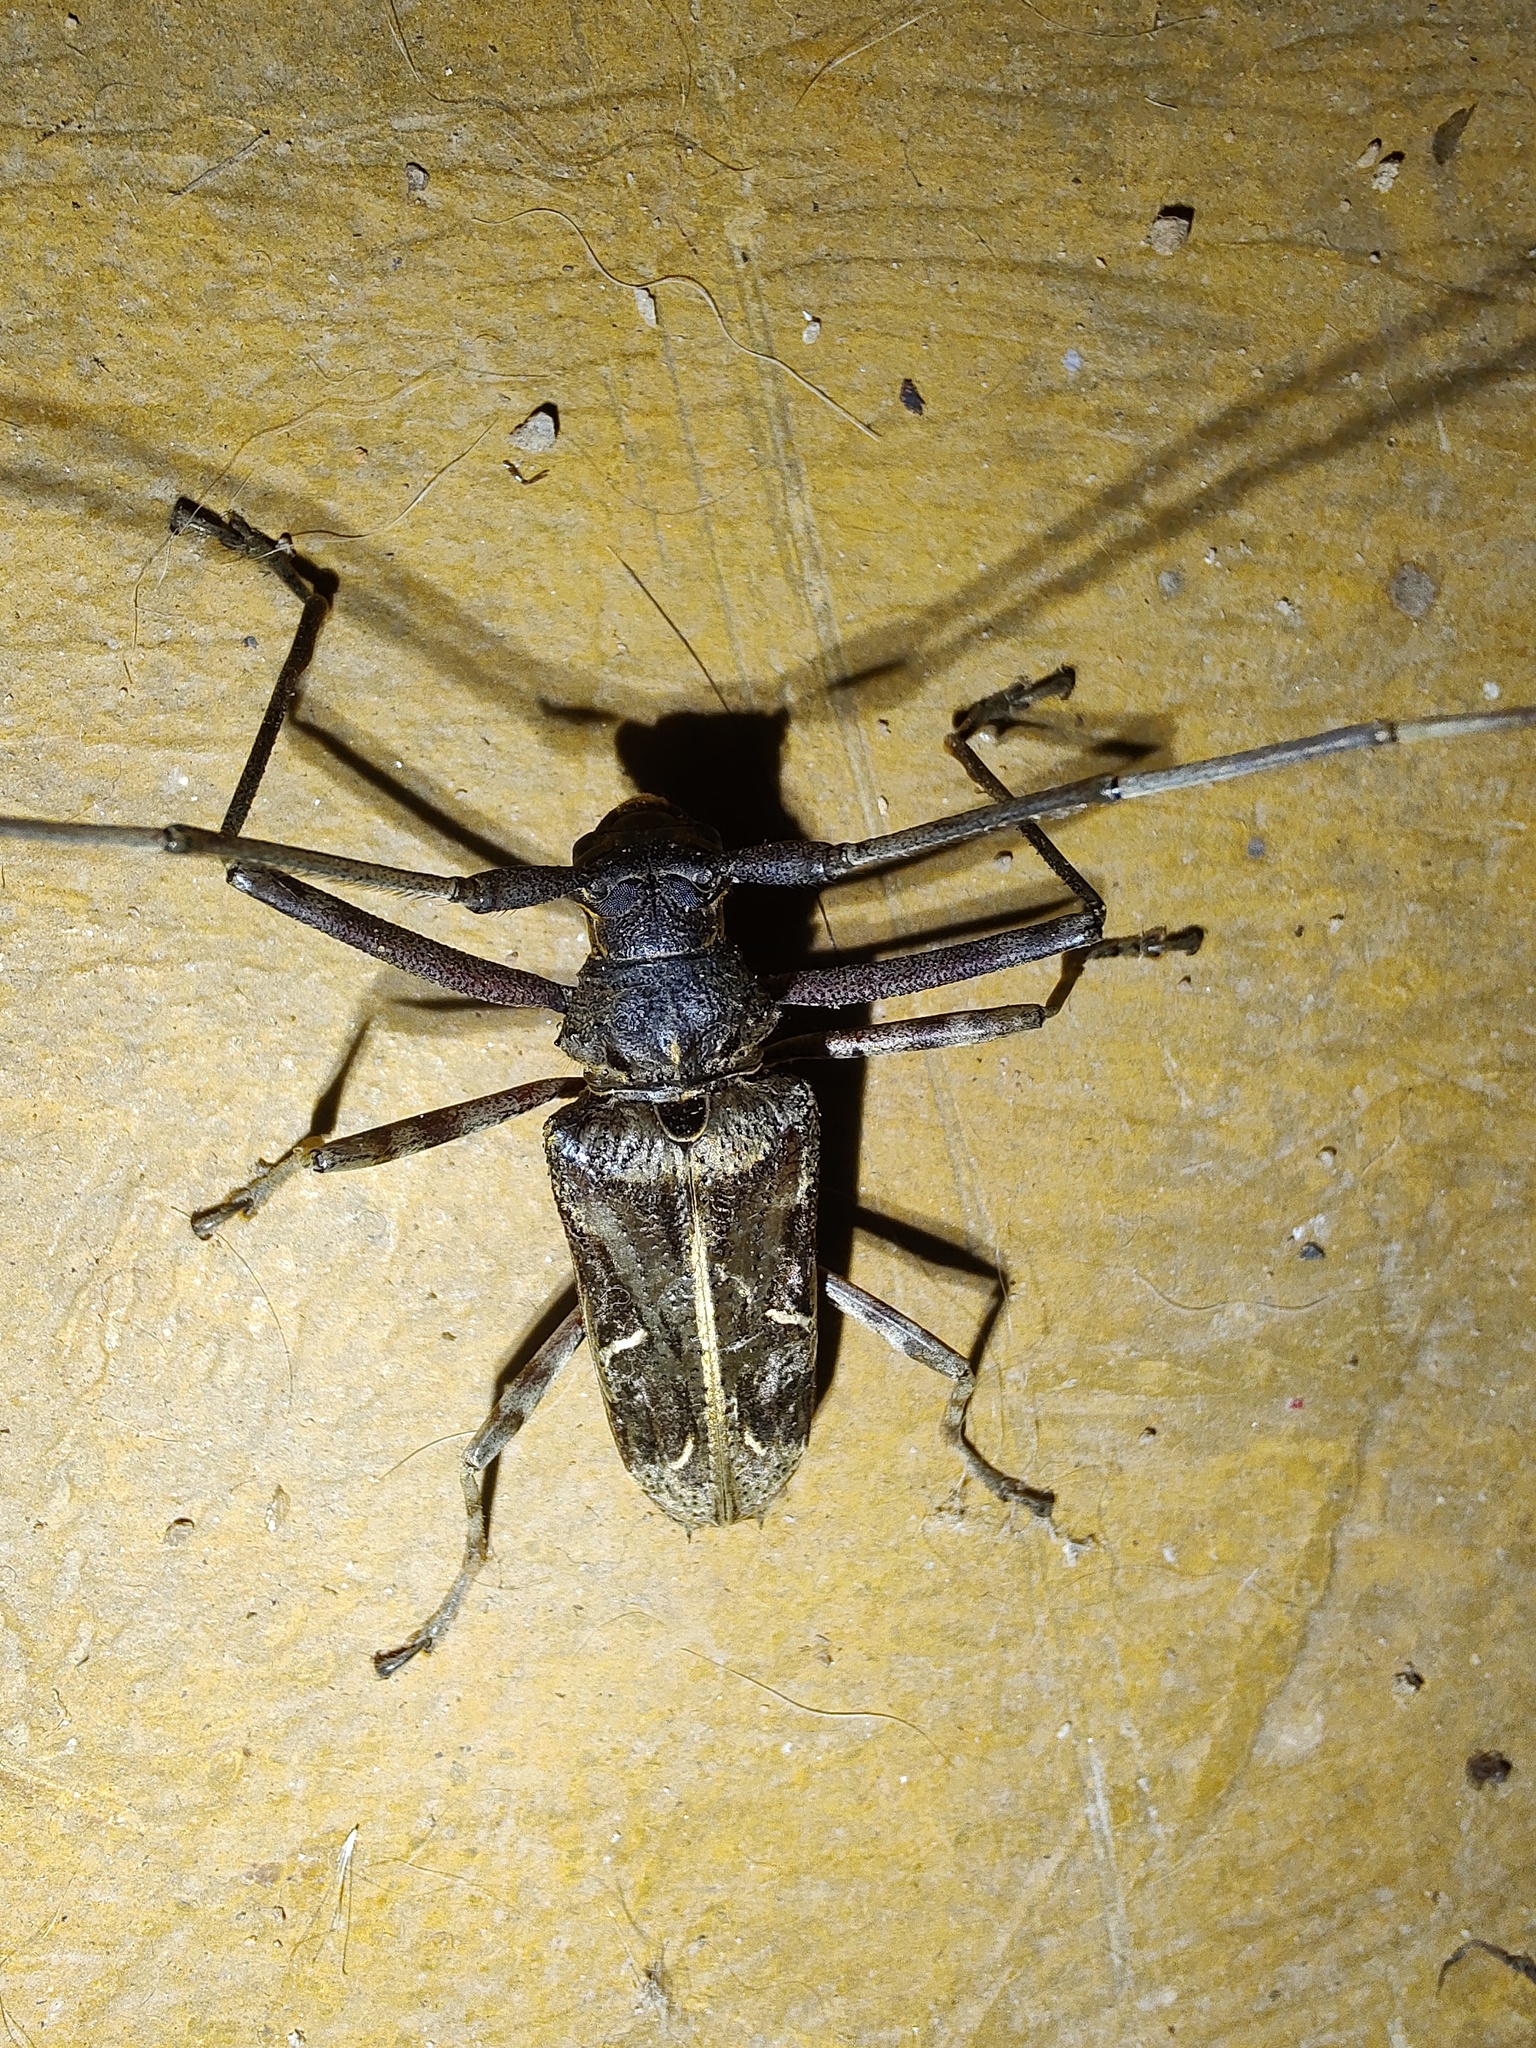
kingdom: Animalia
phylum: Arthropoda
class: Insecta
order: Coleoptera
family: Cerambycidae
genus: Macropophora
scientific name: Macropophora accentifer
